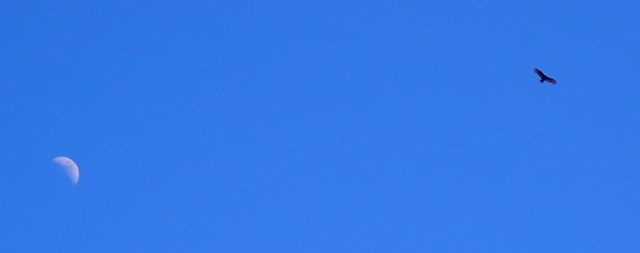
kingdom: Animalia
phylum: Chordata
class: Aves
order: Accipitriformes
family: Cathartidae
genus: Cathartes
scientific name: Cathartes aura
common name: Turkey vulture
